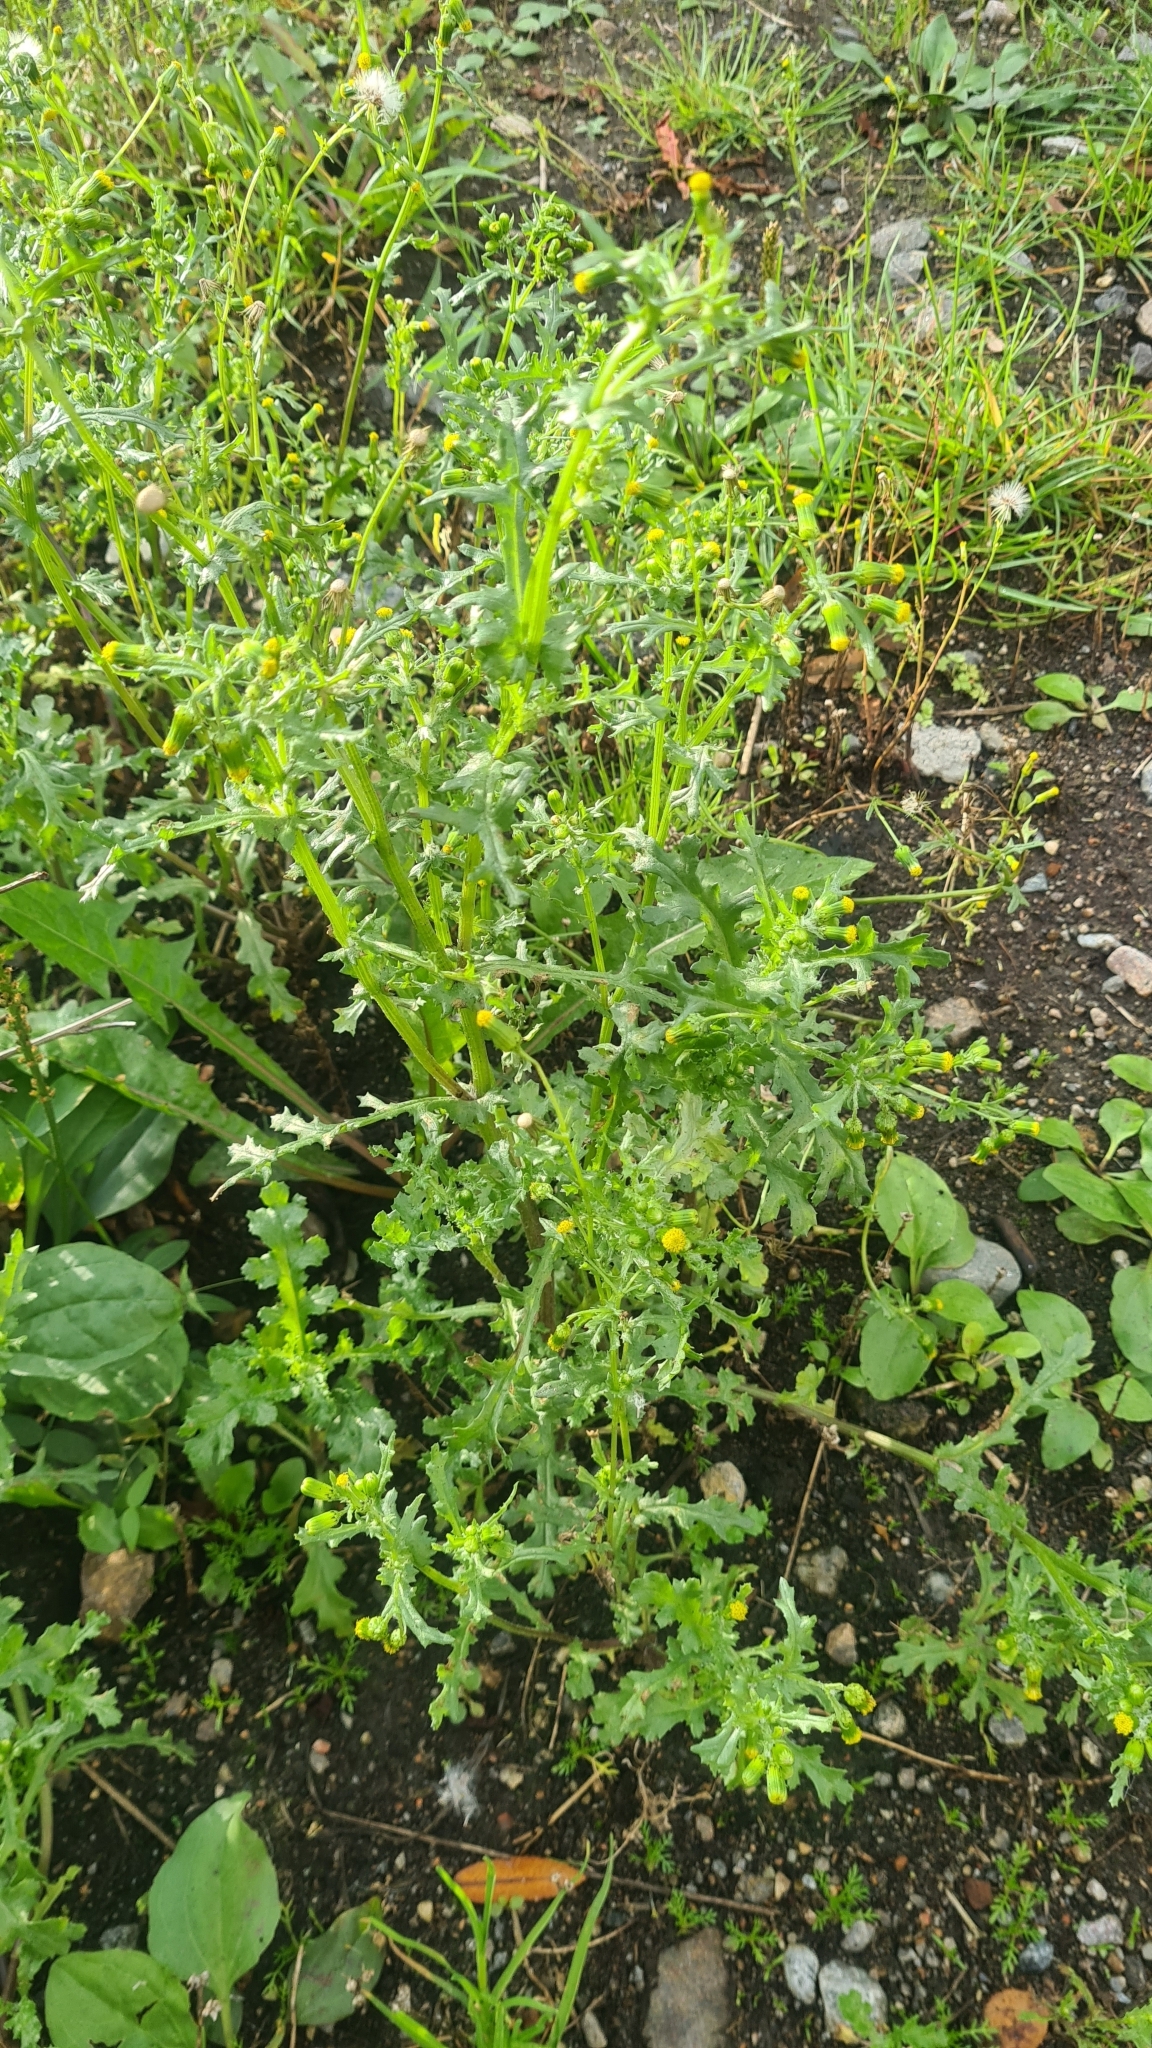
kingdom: Plantae
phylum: Tracheophyta
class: Magnoliopsida
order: Asterales
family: Asteraceae
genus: Senecio
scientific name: Senecio vulgaris
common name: Old-man-in-the-spring
